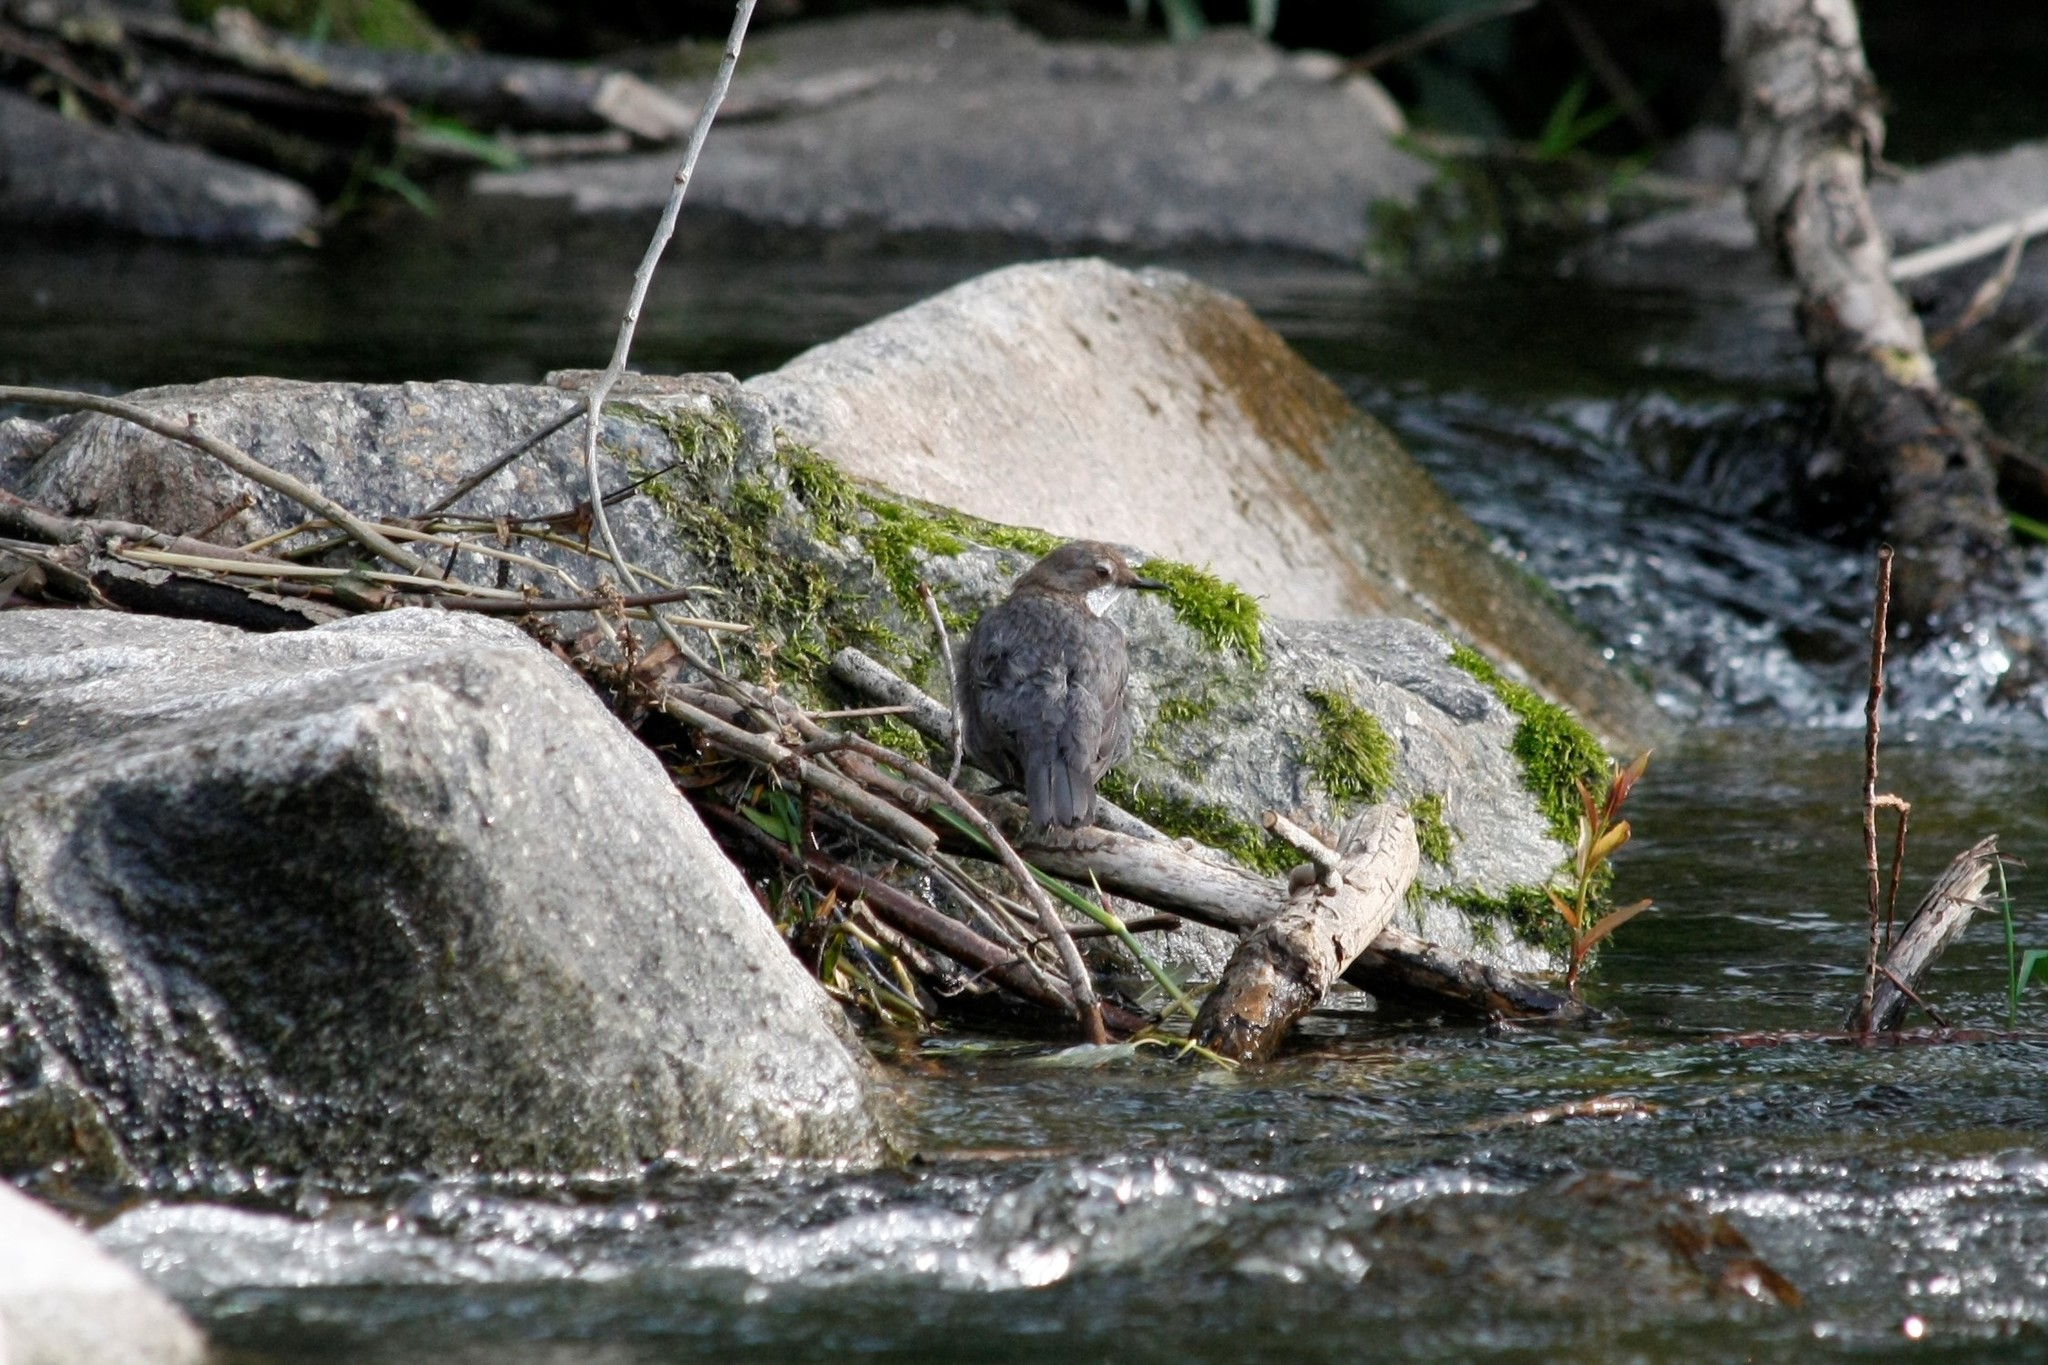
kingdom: Animalia
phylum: Chordata
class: Aves
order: Passeriformes
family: Cinclidae
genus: Cinclus
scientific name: Cinclus cinclus
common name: White-throated dipper
